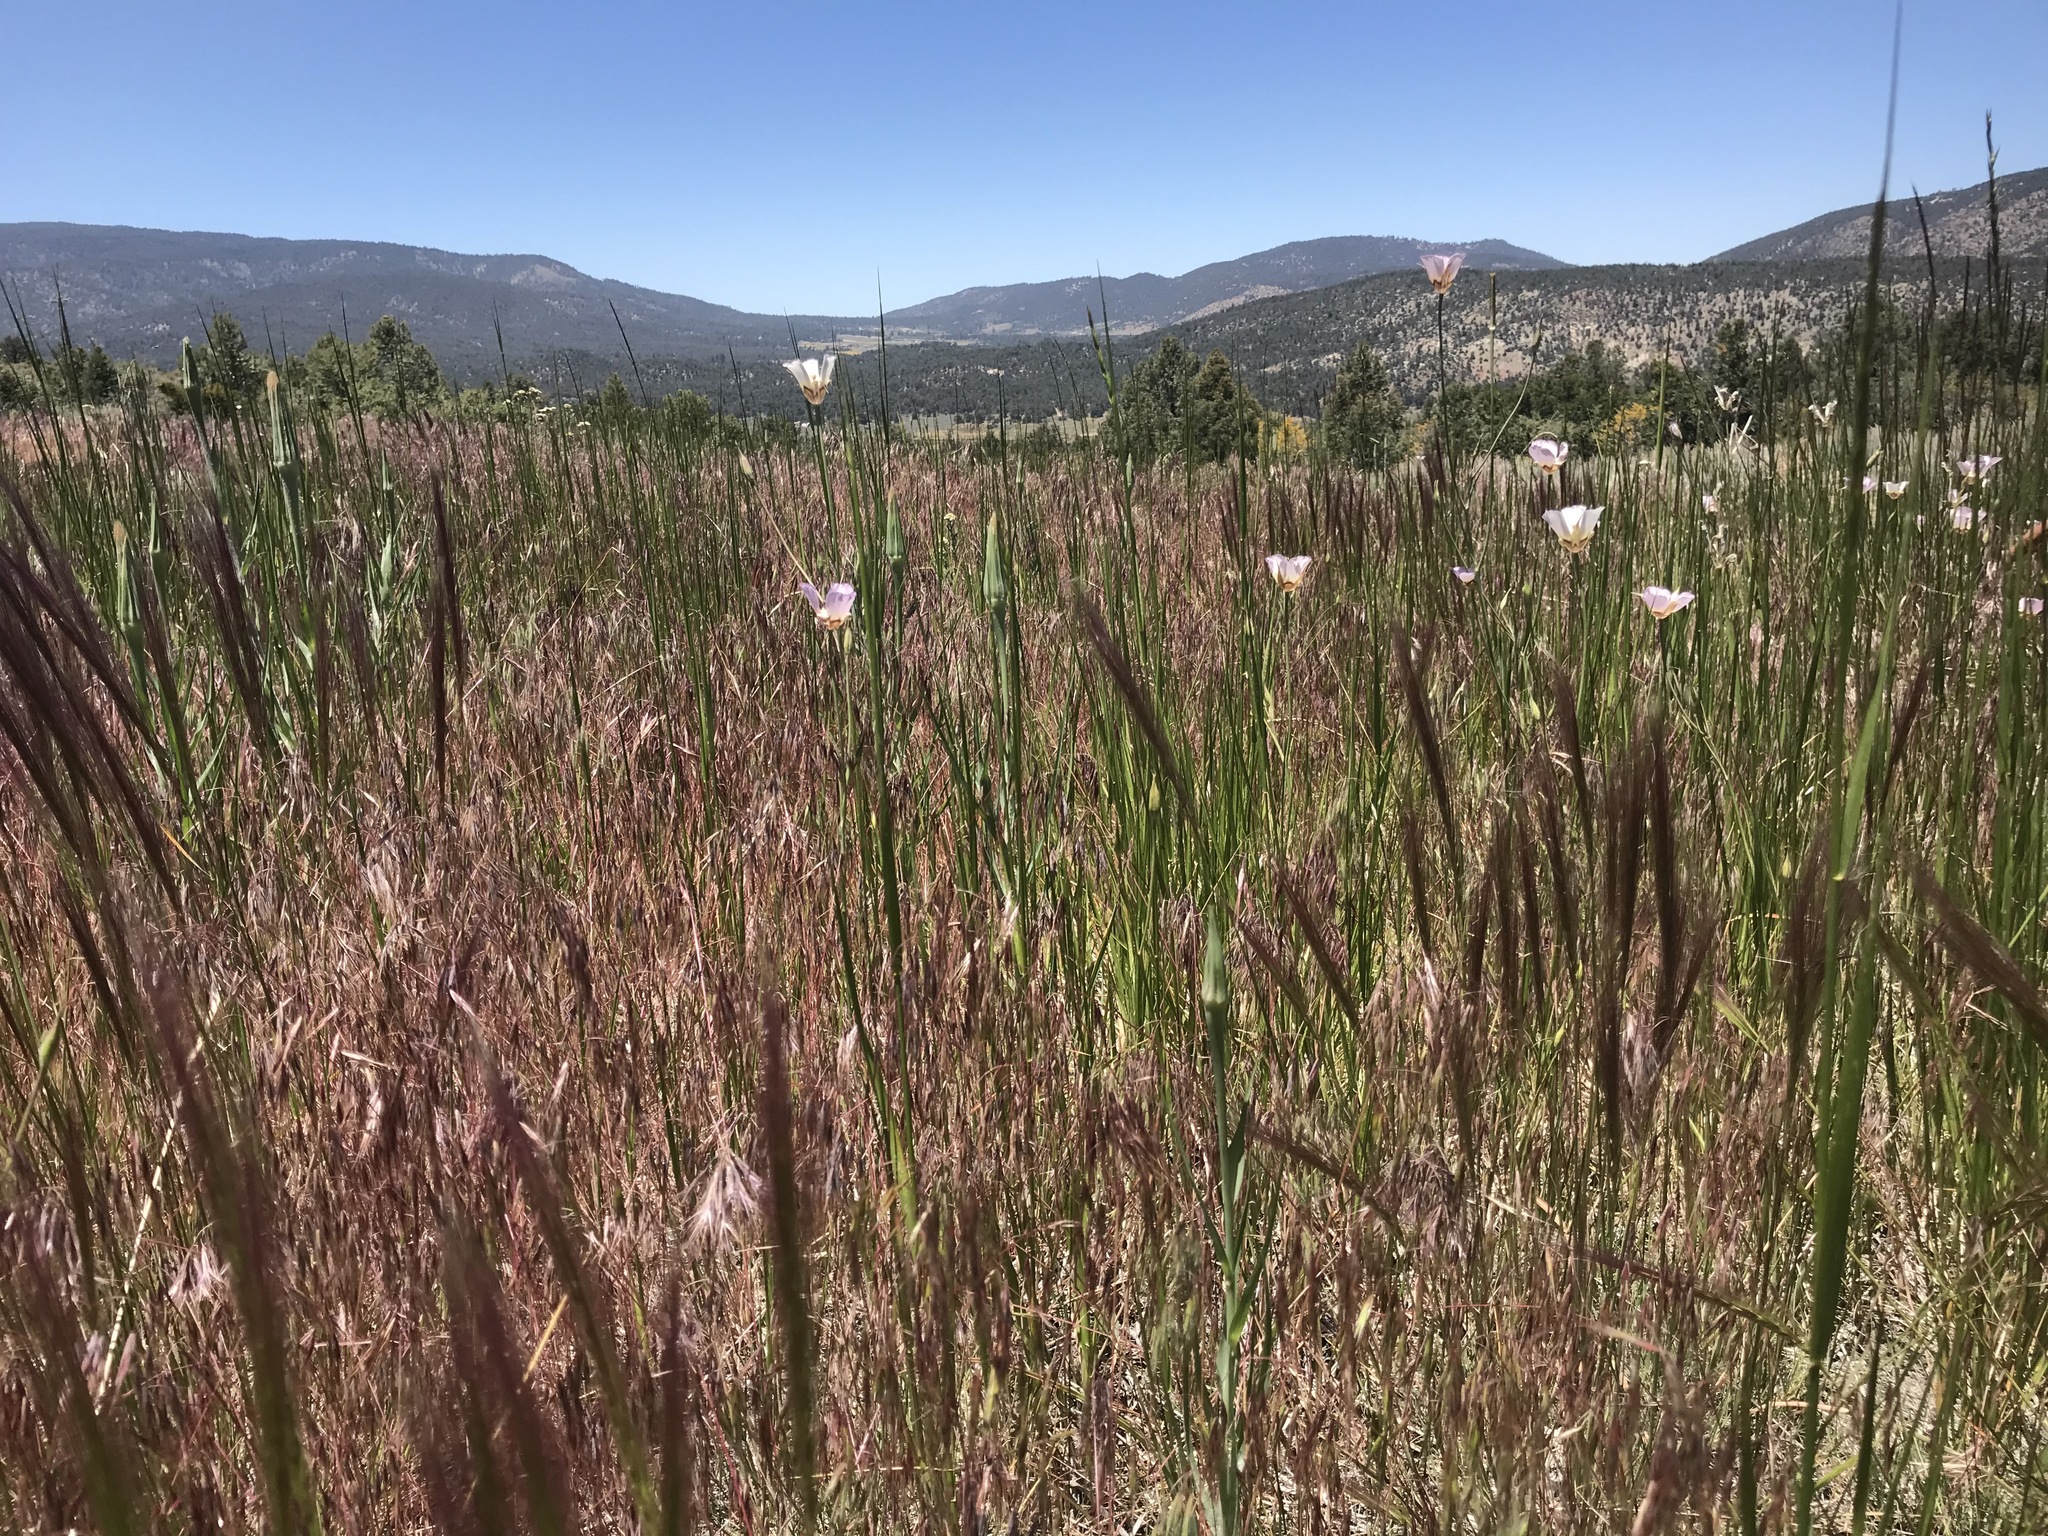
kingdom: Plantae
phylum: Tracheophyta
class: Liliopsida
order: Liliales
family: Liliaceae
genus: Calochortus
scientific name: Calochortus palmeri
